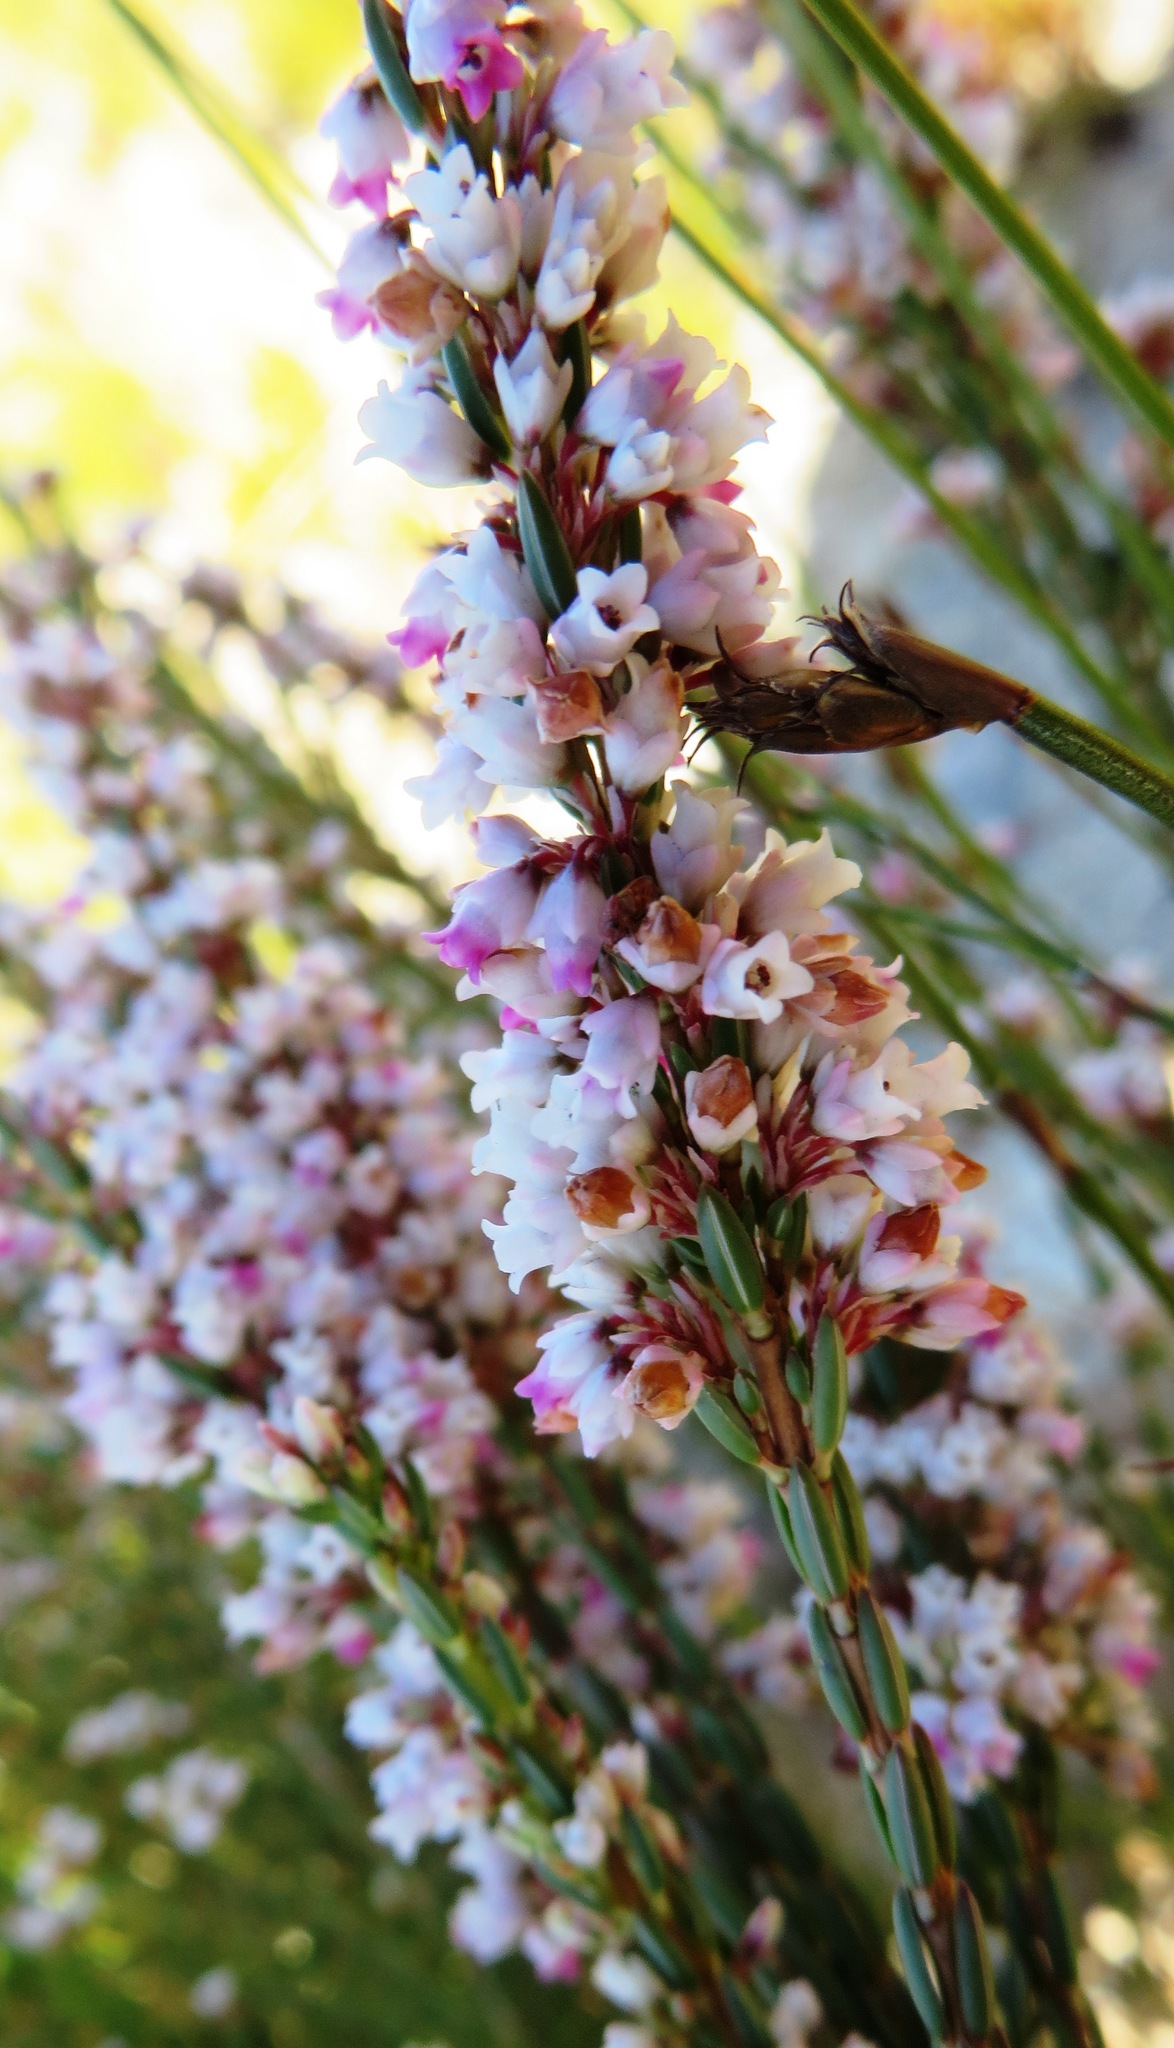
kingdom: Plantae
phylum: Tracheophyta
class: Magnoliopsida
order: Ericales
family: Ericaceae
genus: Erica
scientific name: Erica articularis
